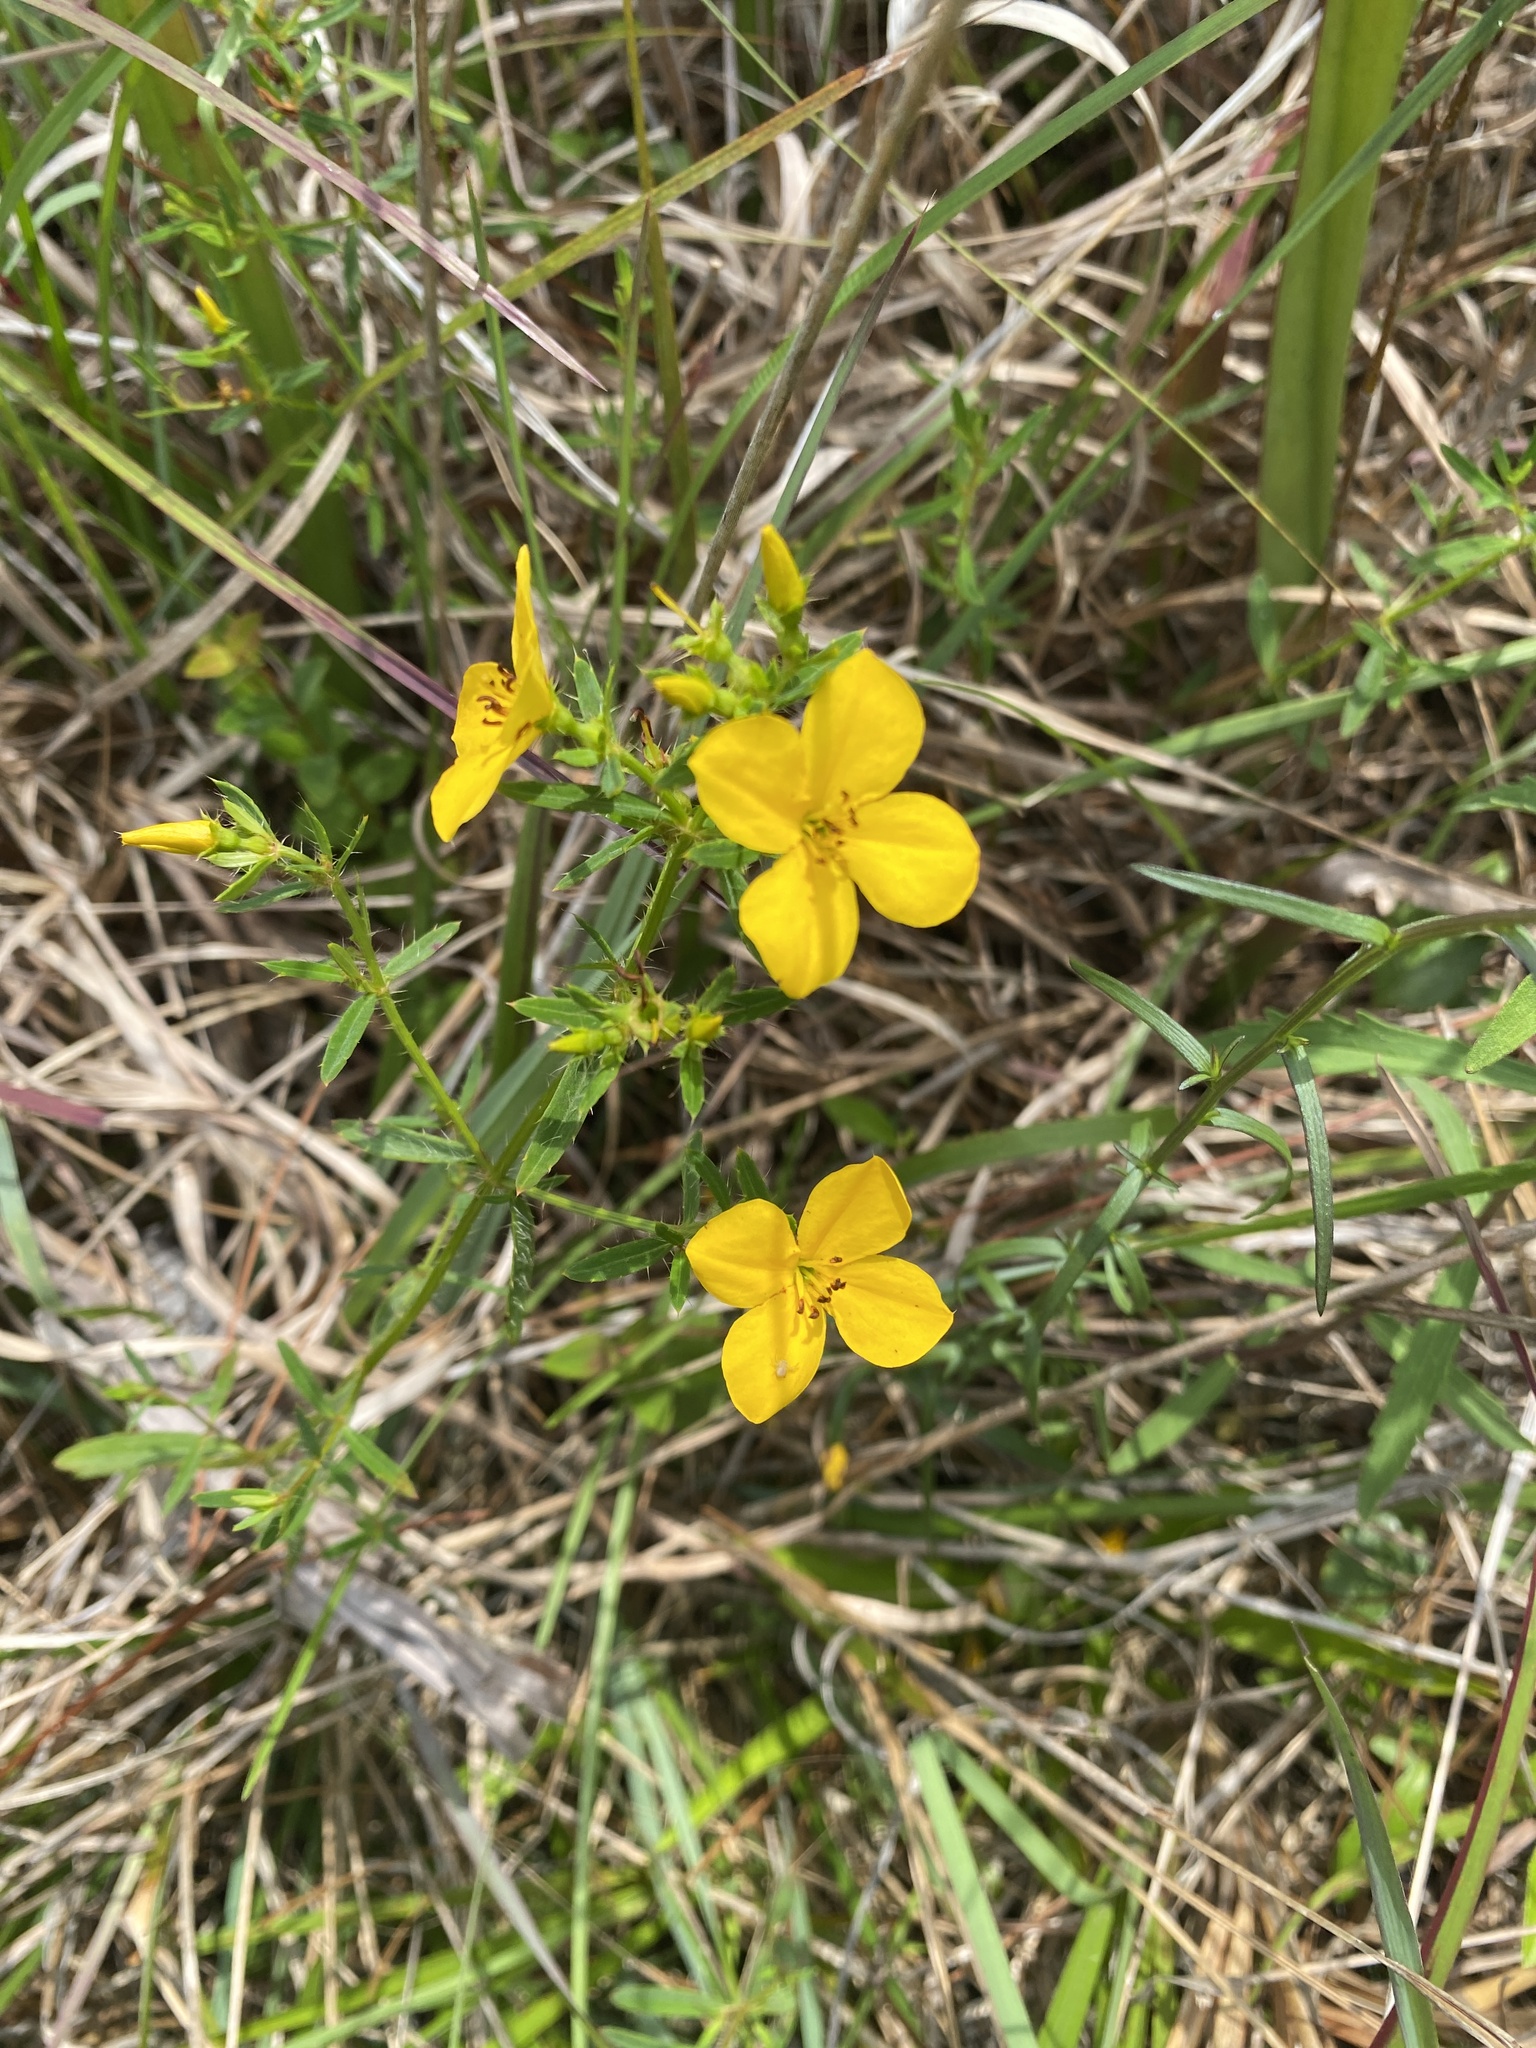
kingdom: Plantae
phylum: Tracheophyta
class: Magnoliopsida
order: Myrtales
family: Melastomataceae
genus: Rhexia
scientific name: Rhexia lutea
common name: Golden meadow-beauty
